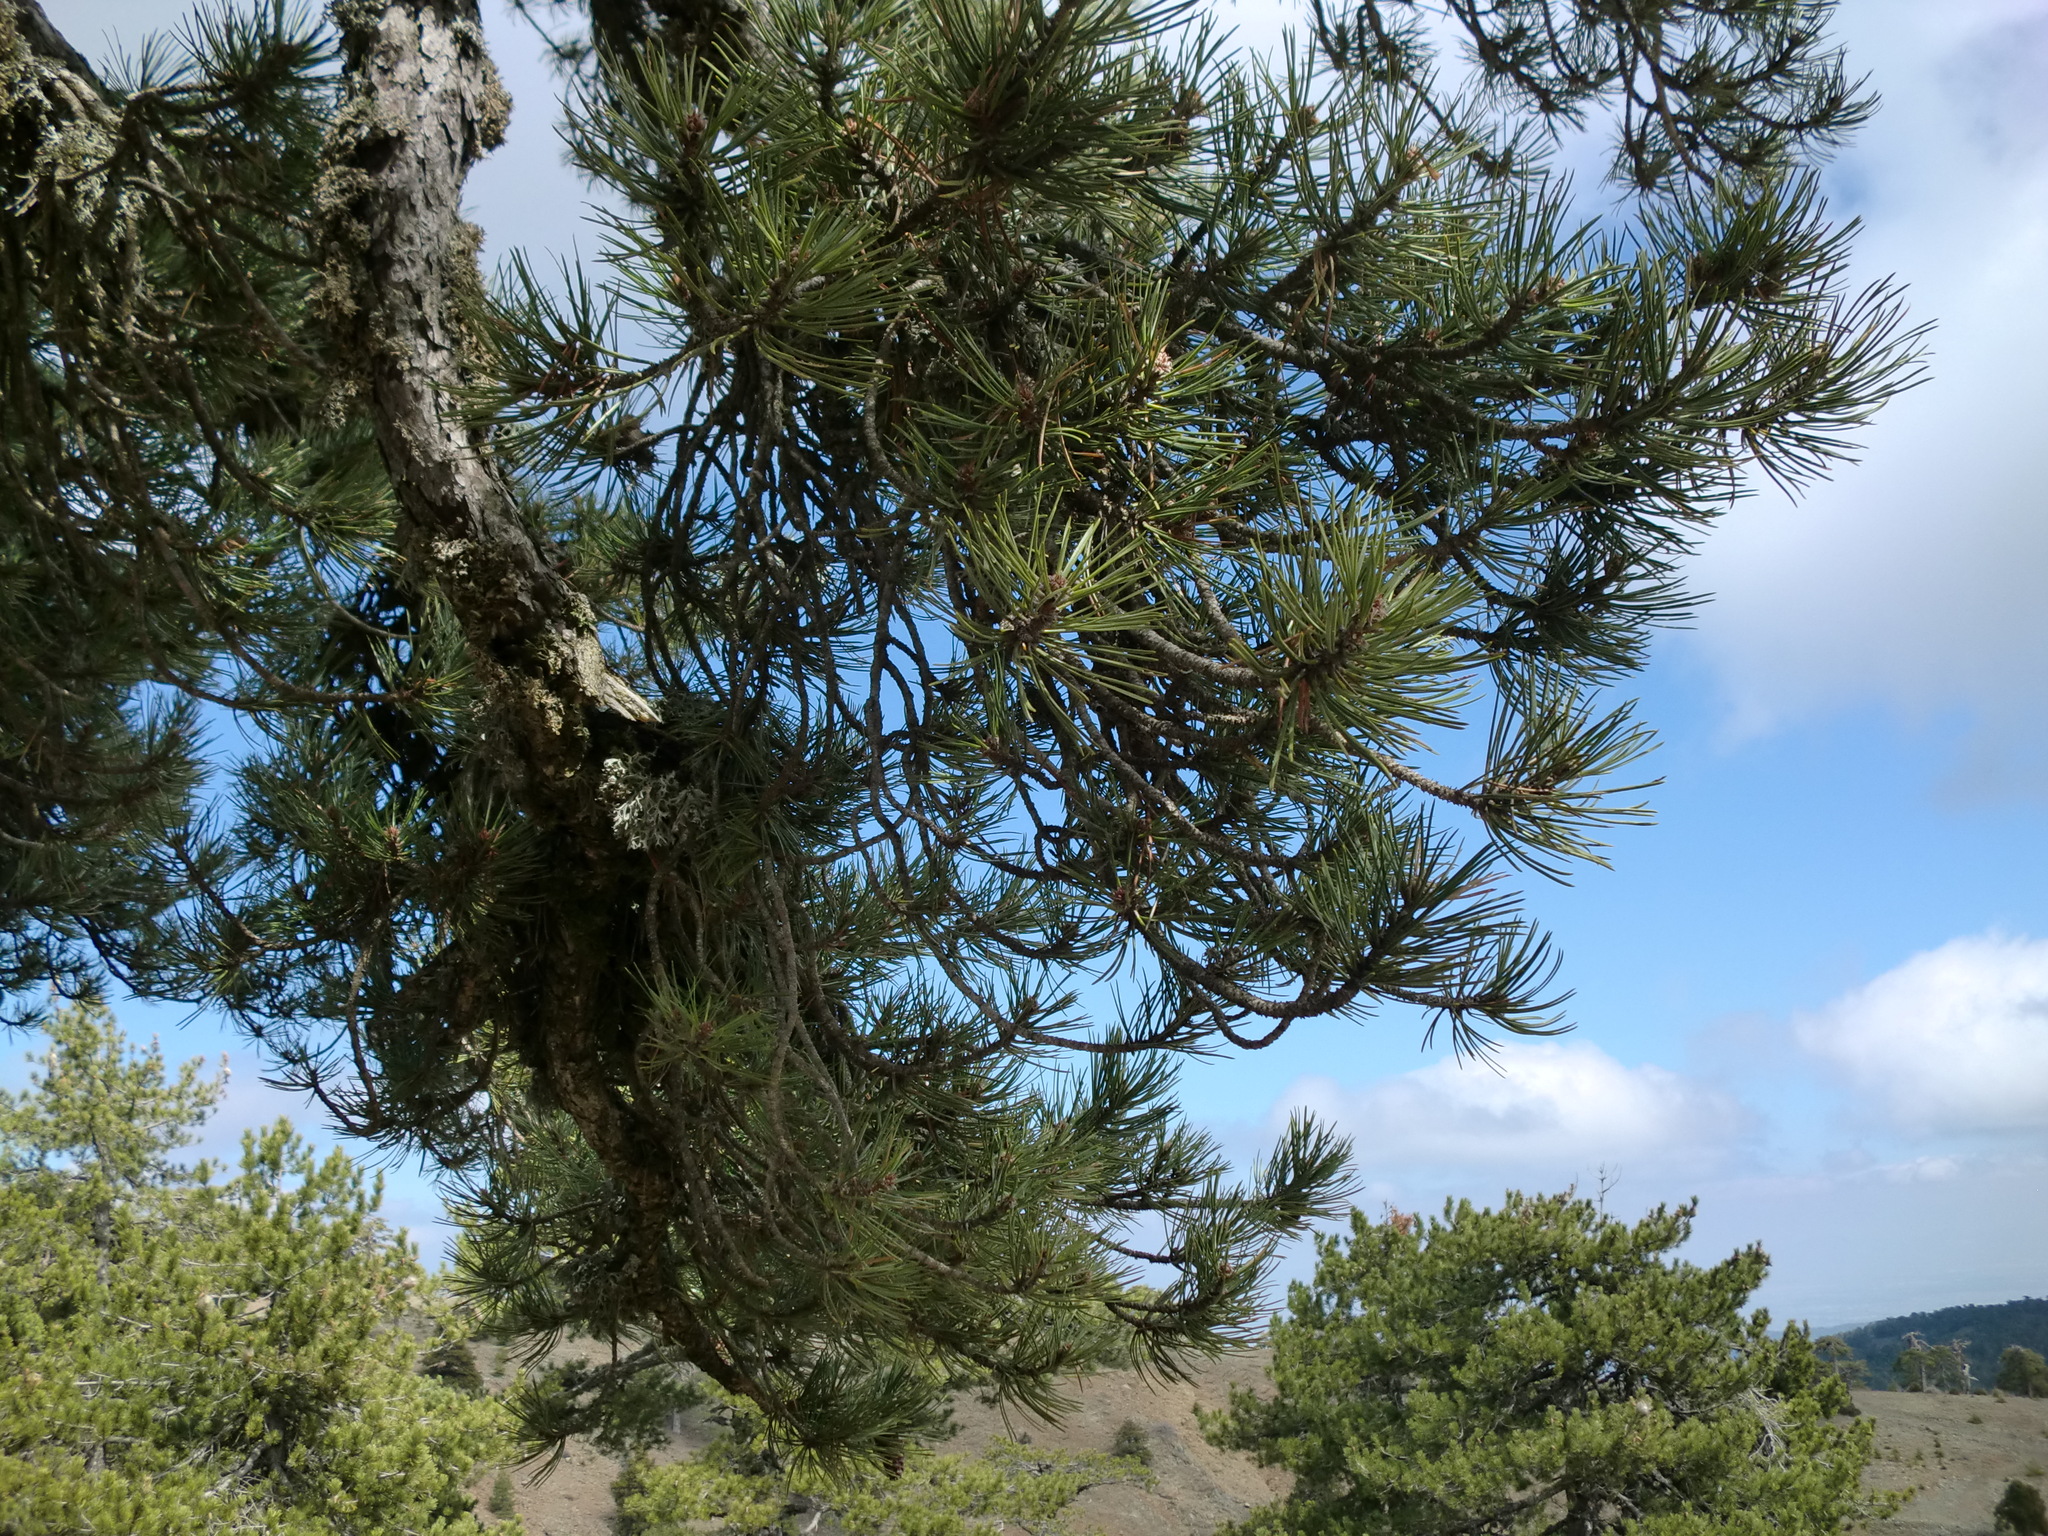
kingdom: Plantae
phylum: Tracheophyta
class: Pinopsida
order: Pinales
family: Pinaceae
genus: Pinus
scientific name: Pinus nigra
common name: Austrian pine
